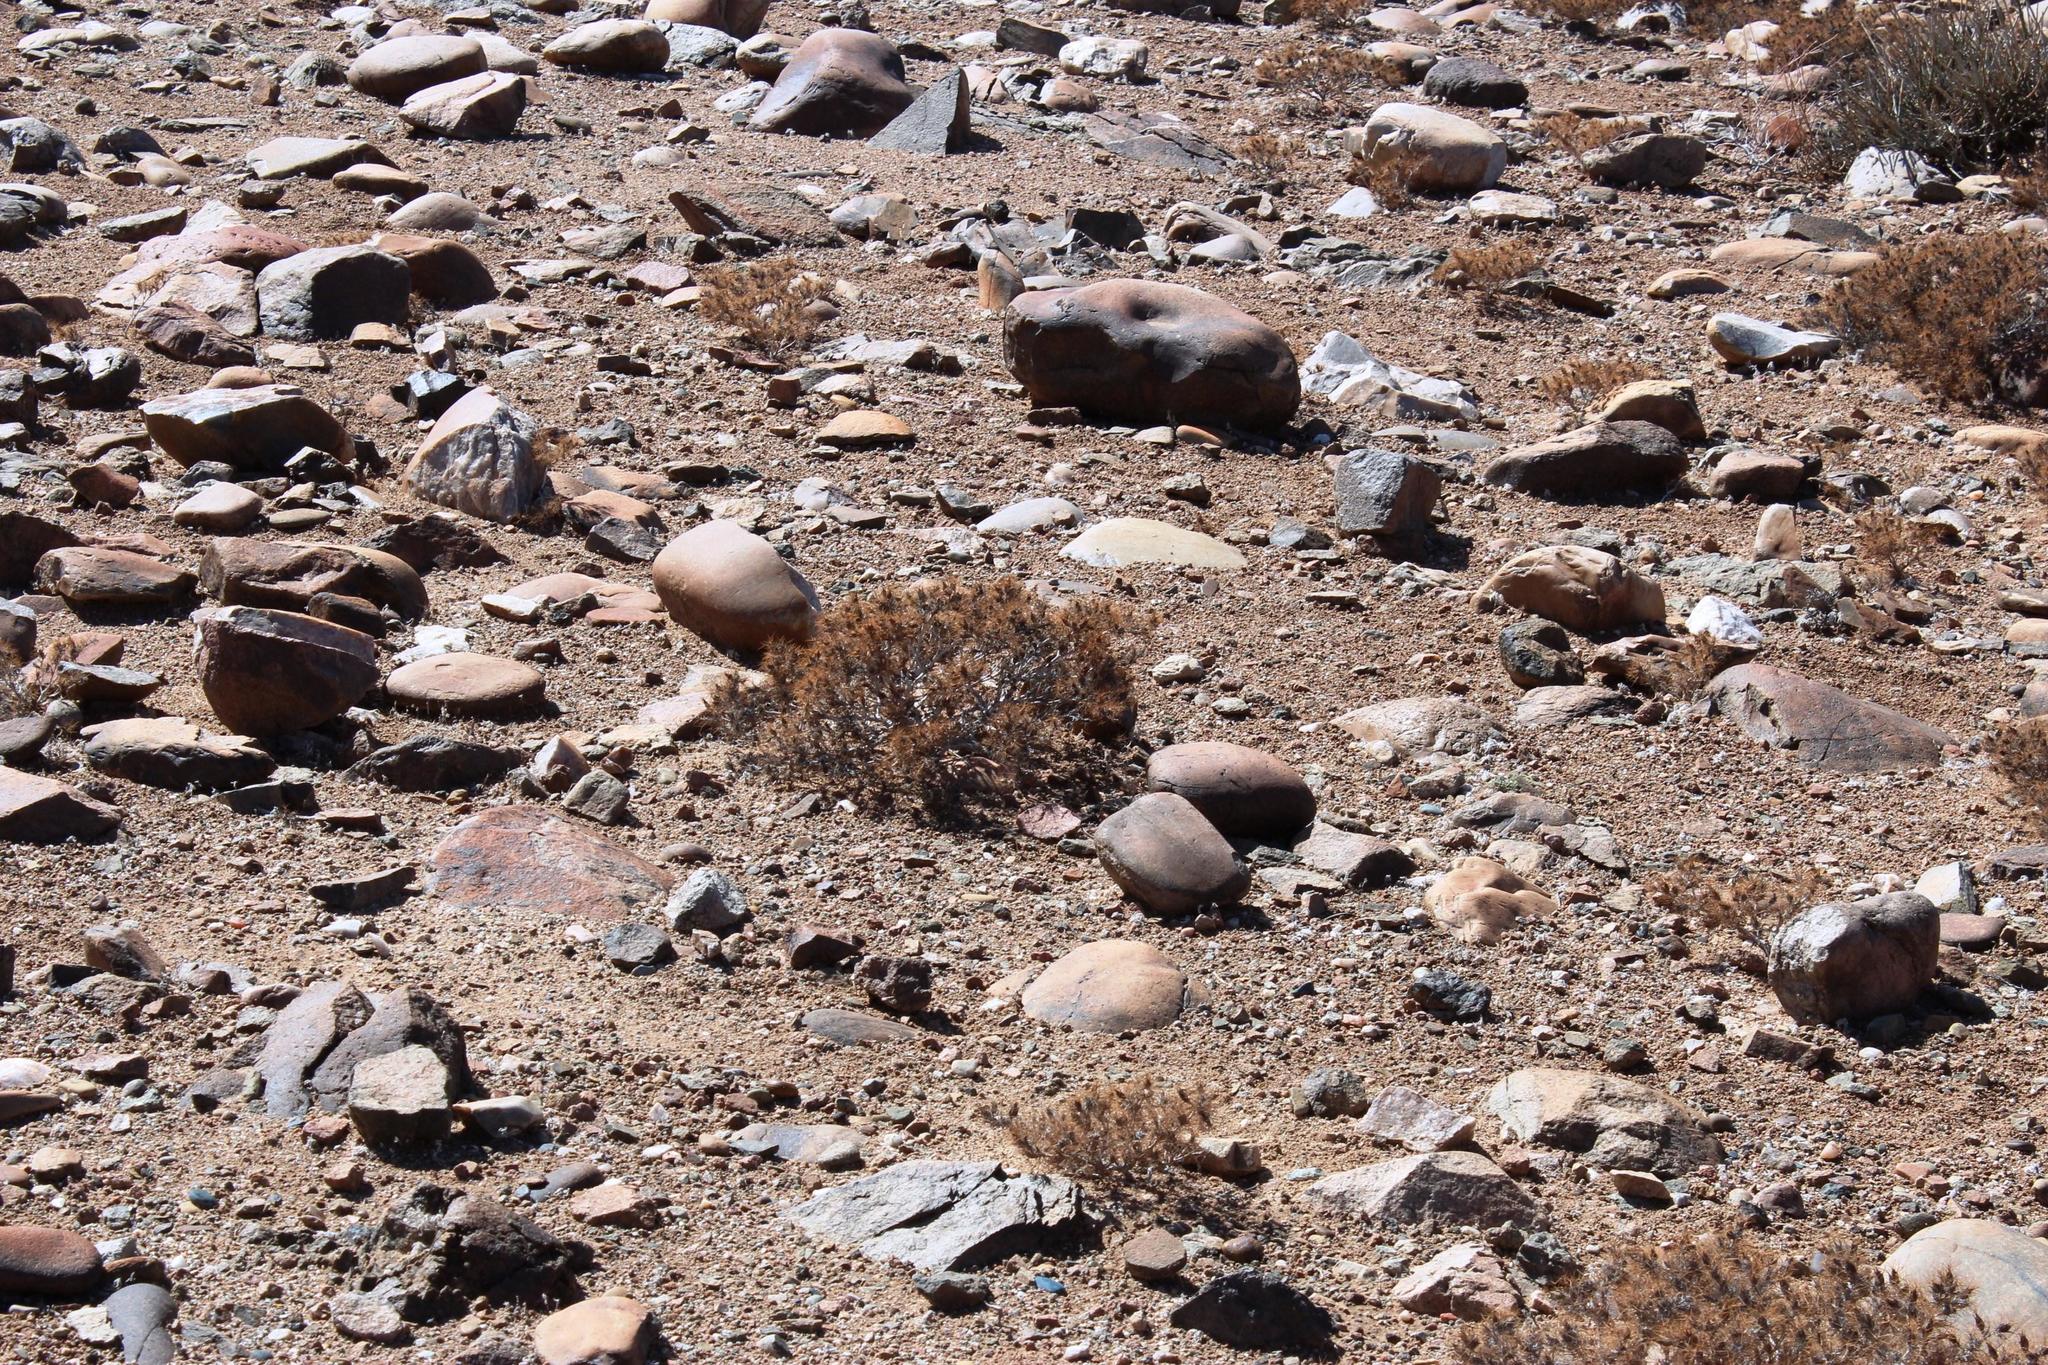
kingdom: Plantae
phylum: Tracheophyta
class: Magnoliopsida
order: Lamiales
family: Acanthaceae
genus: Blepharis
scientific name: Blepharis furcata
